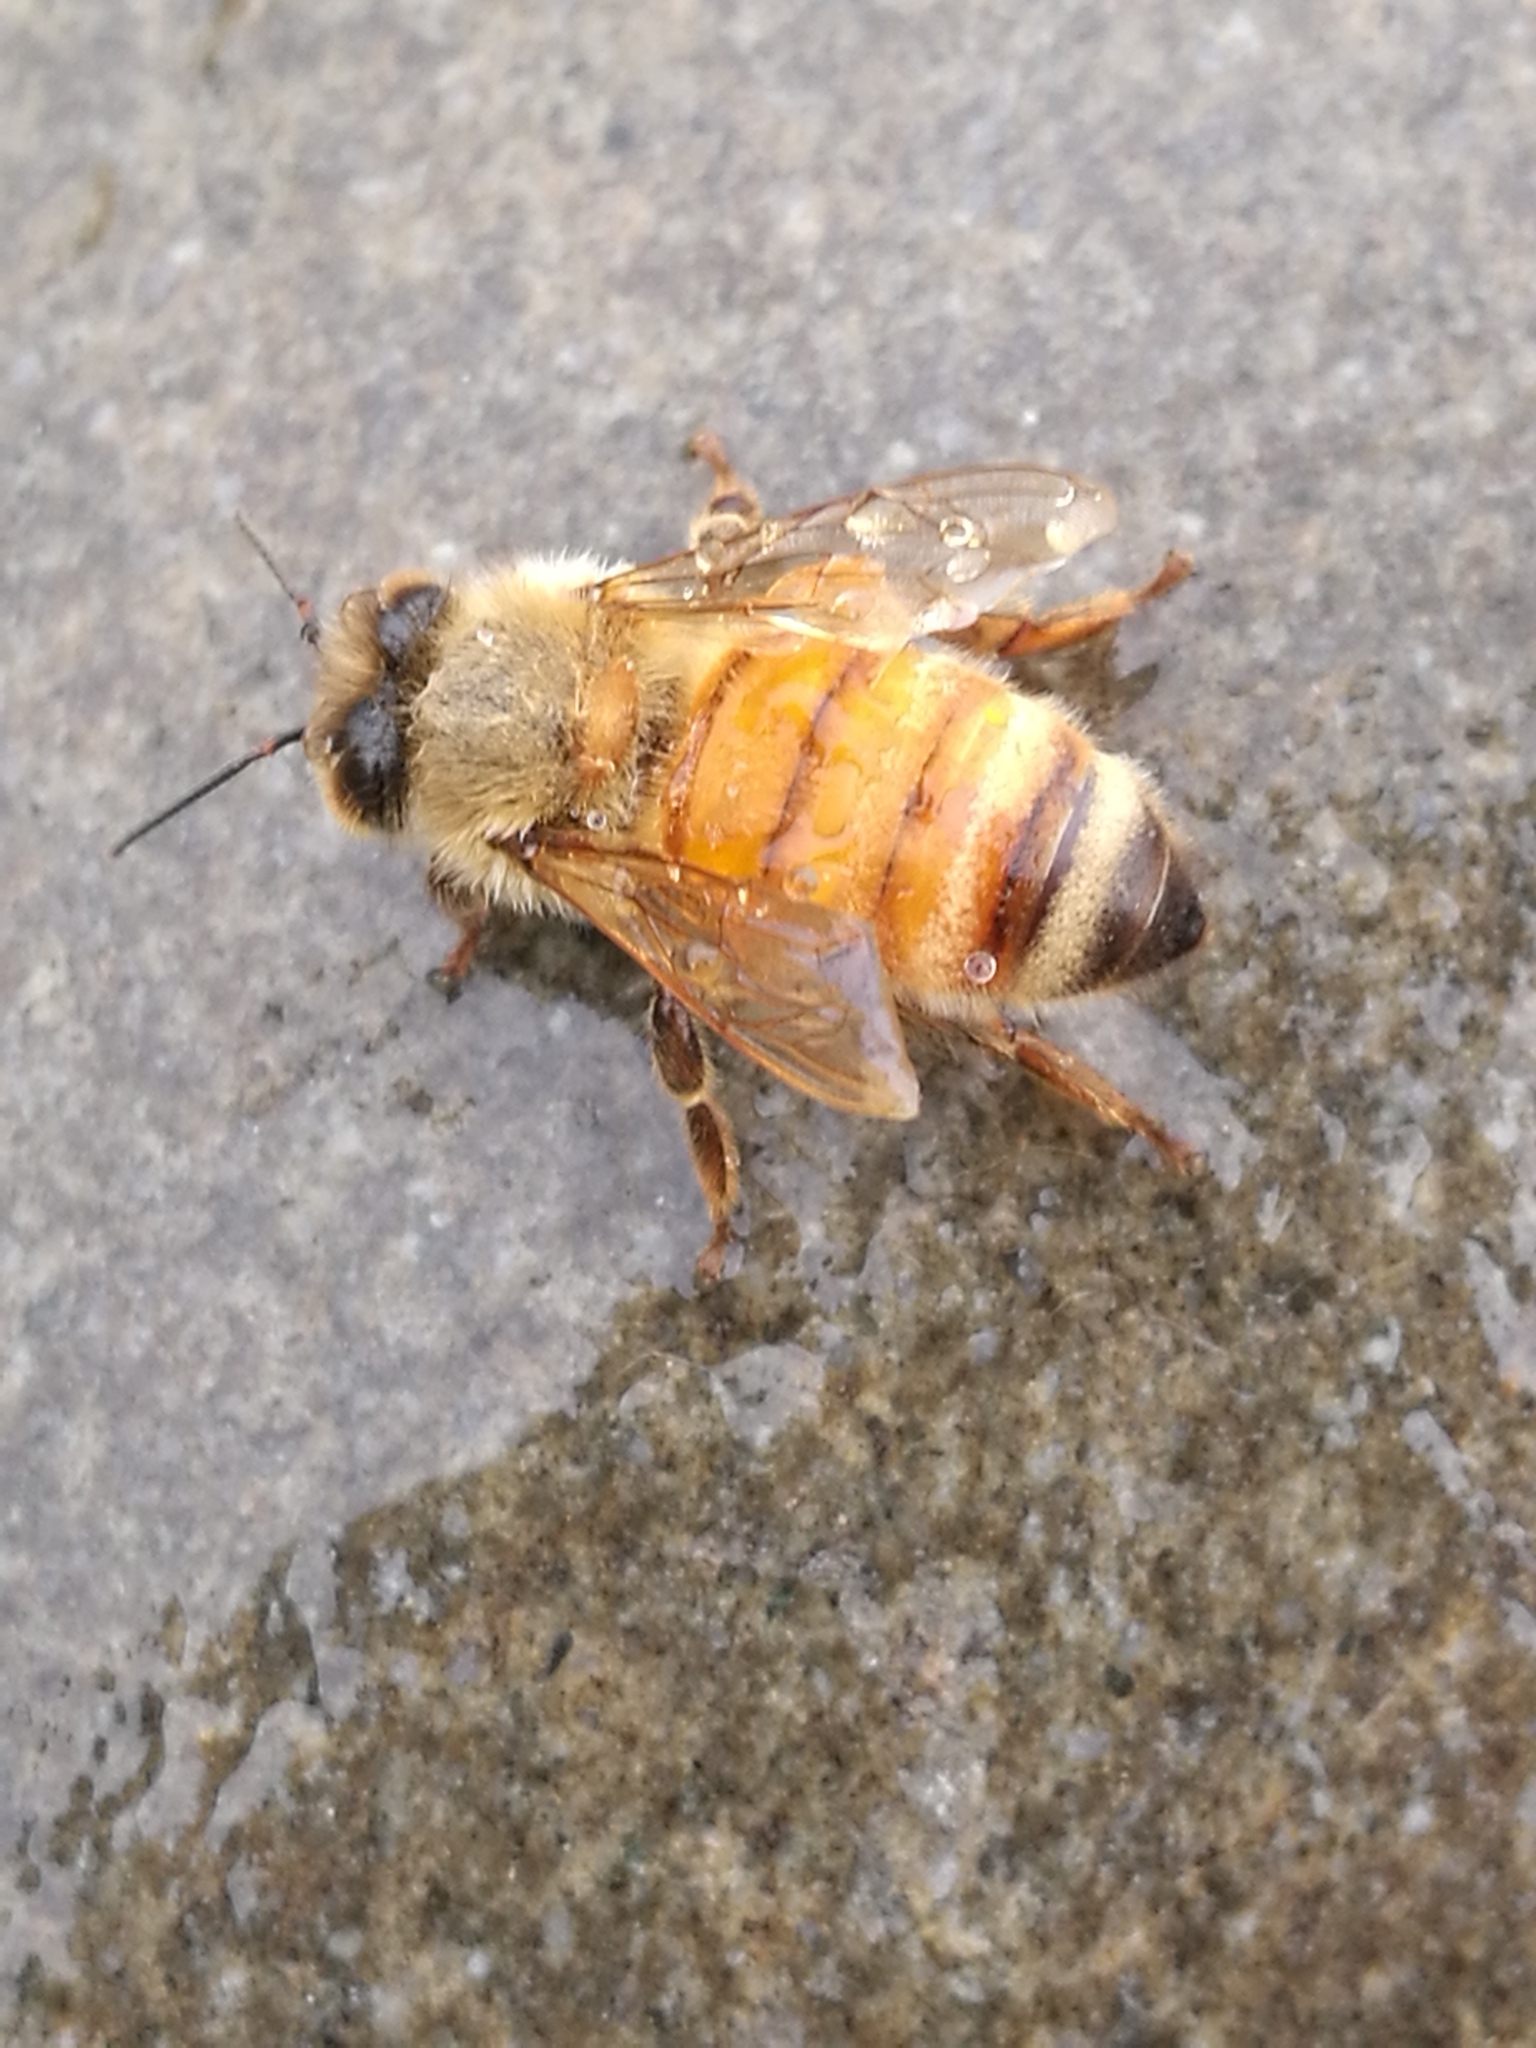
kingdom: Animalia
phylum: Arthropoda
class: Insecta
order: Hymenoptera
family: Apidae
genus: Apis
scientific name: Apis mellifera
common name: Honey bee
